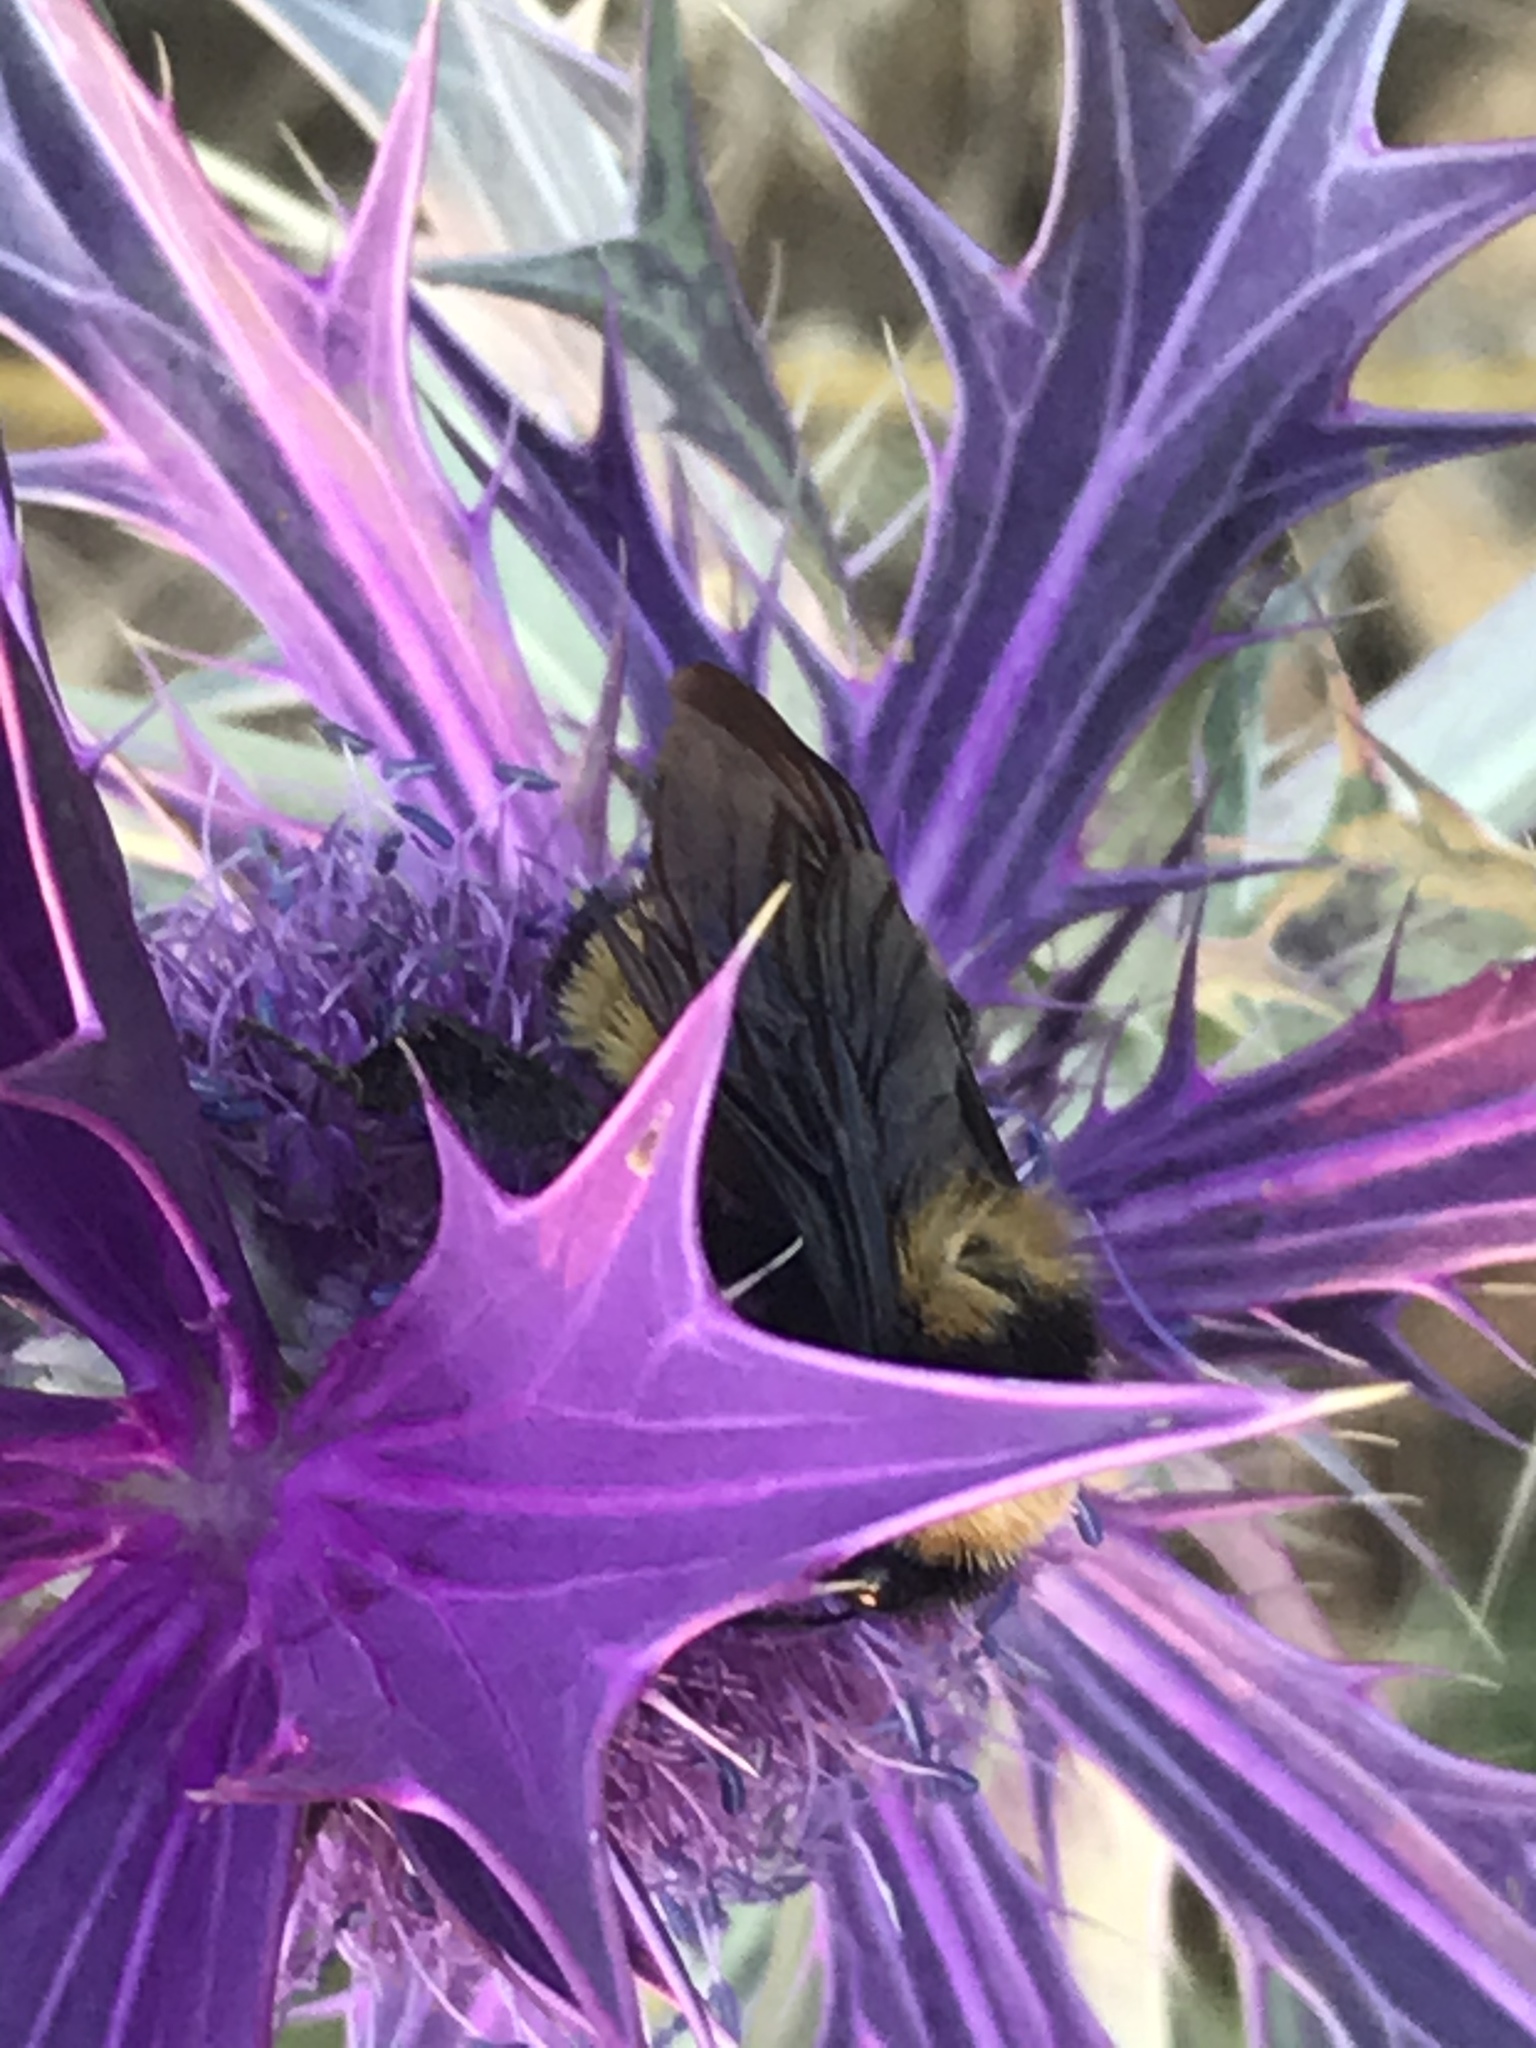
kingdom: Animalia
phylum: Arthropoda
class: Insecta
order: Hymenoptera
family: Apidae
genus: Bombus
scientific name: Bombus sonorus
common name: Sonoran bumble bee
